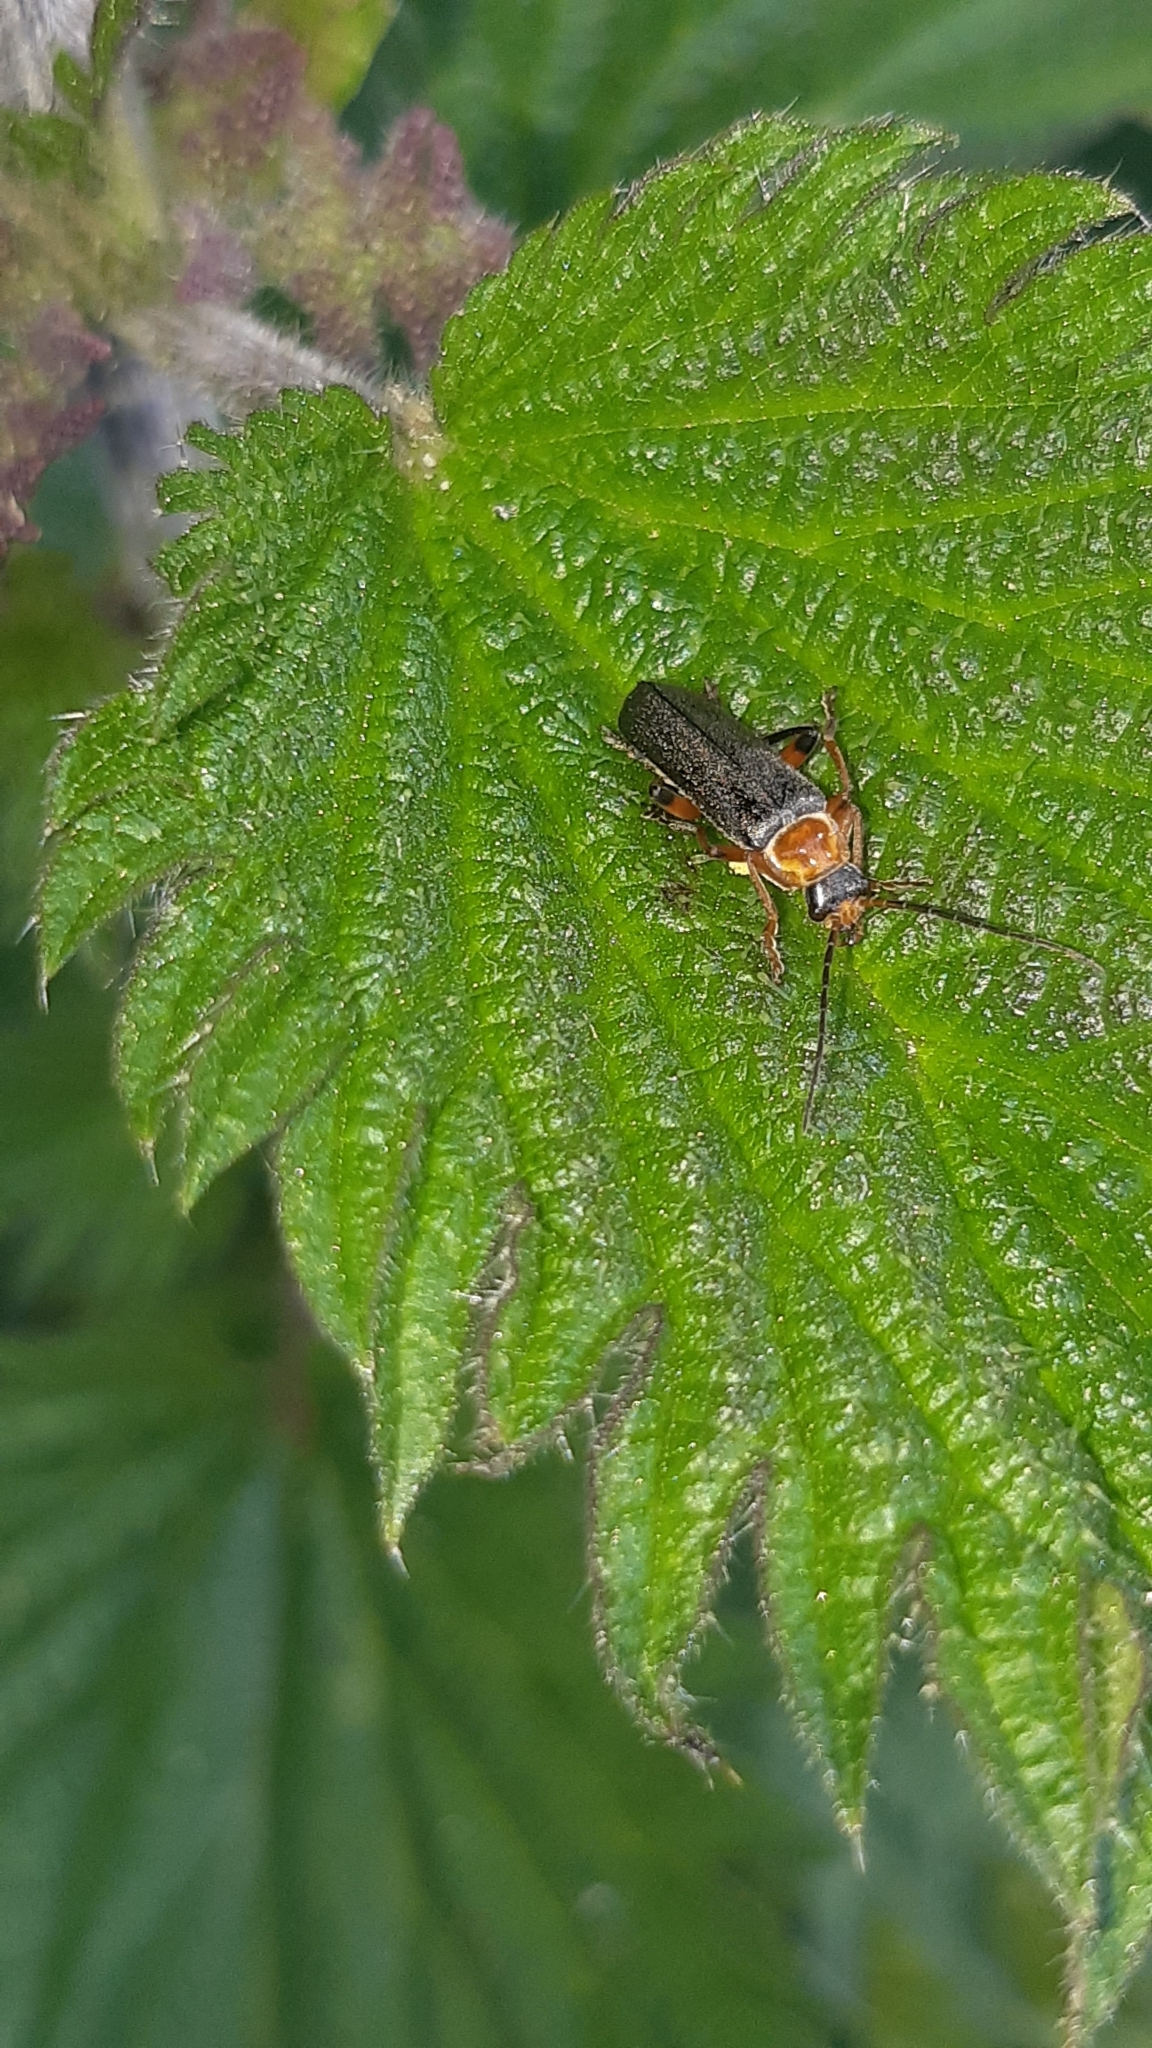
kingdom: Animalia
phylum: Arthropoda
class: Insecta
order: Coleoptera
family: Cantharidae
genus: Cantharis
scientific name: Cantharis nigricans
